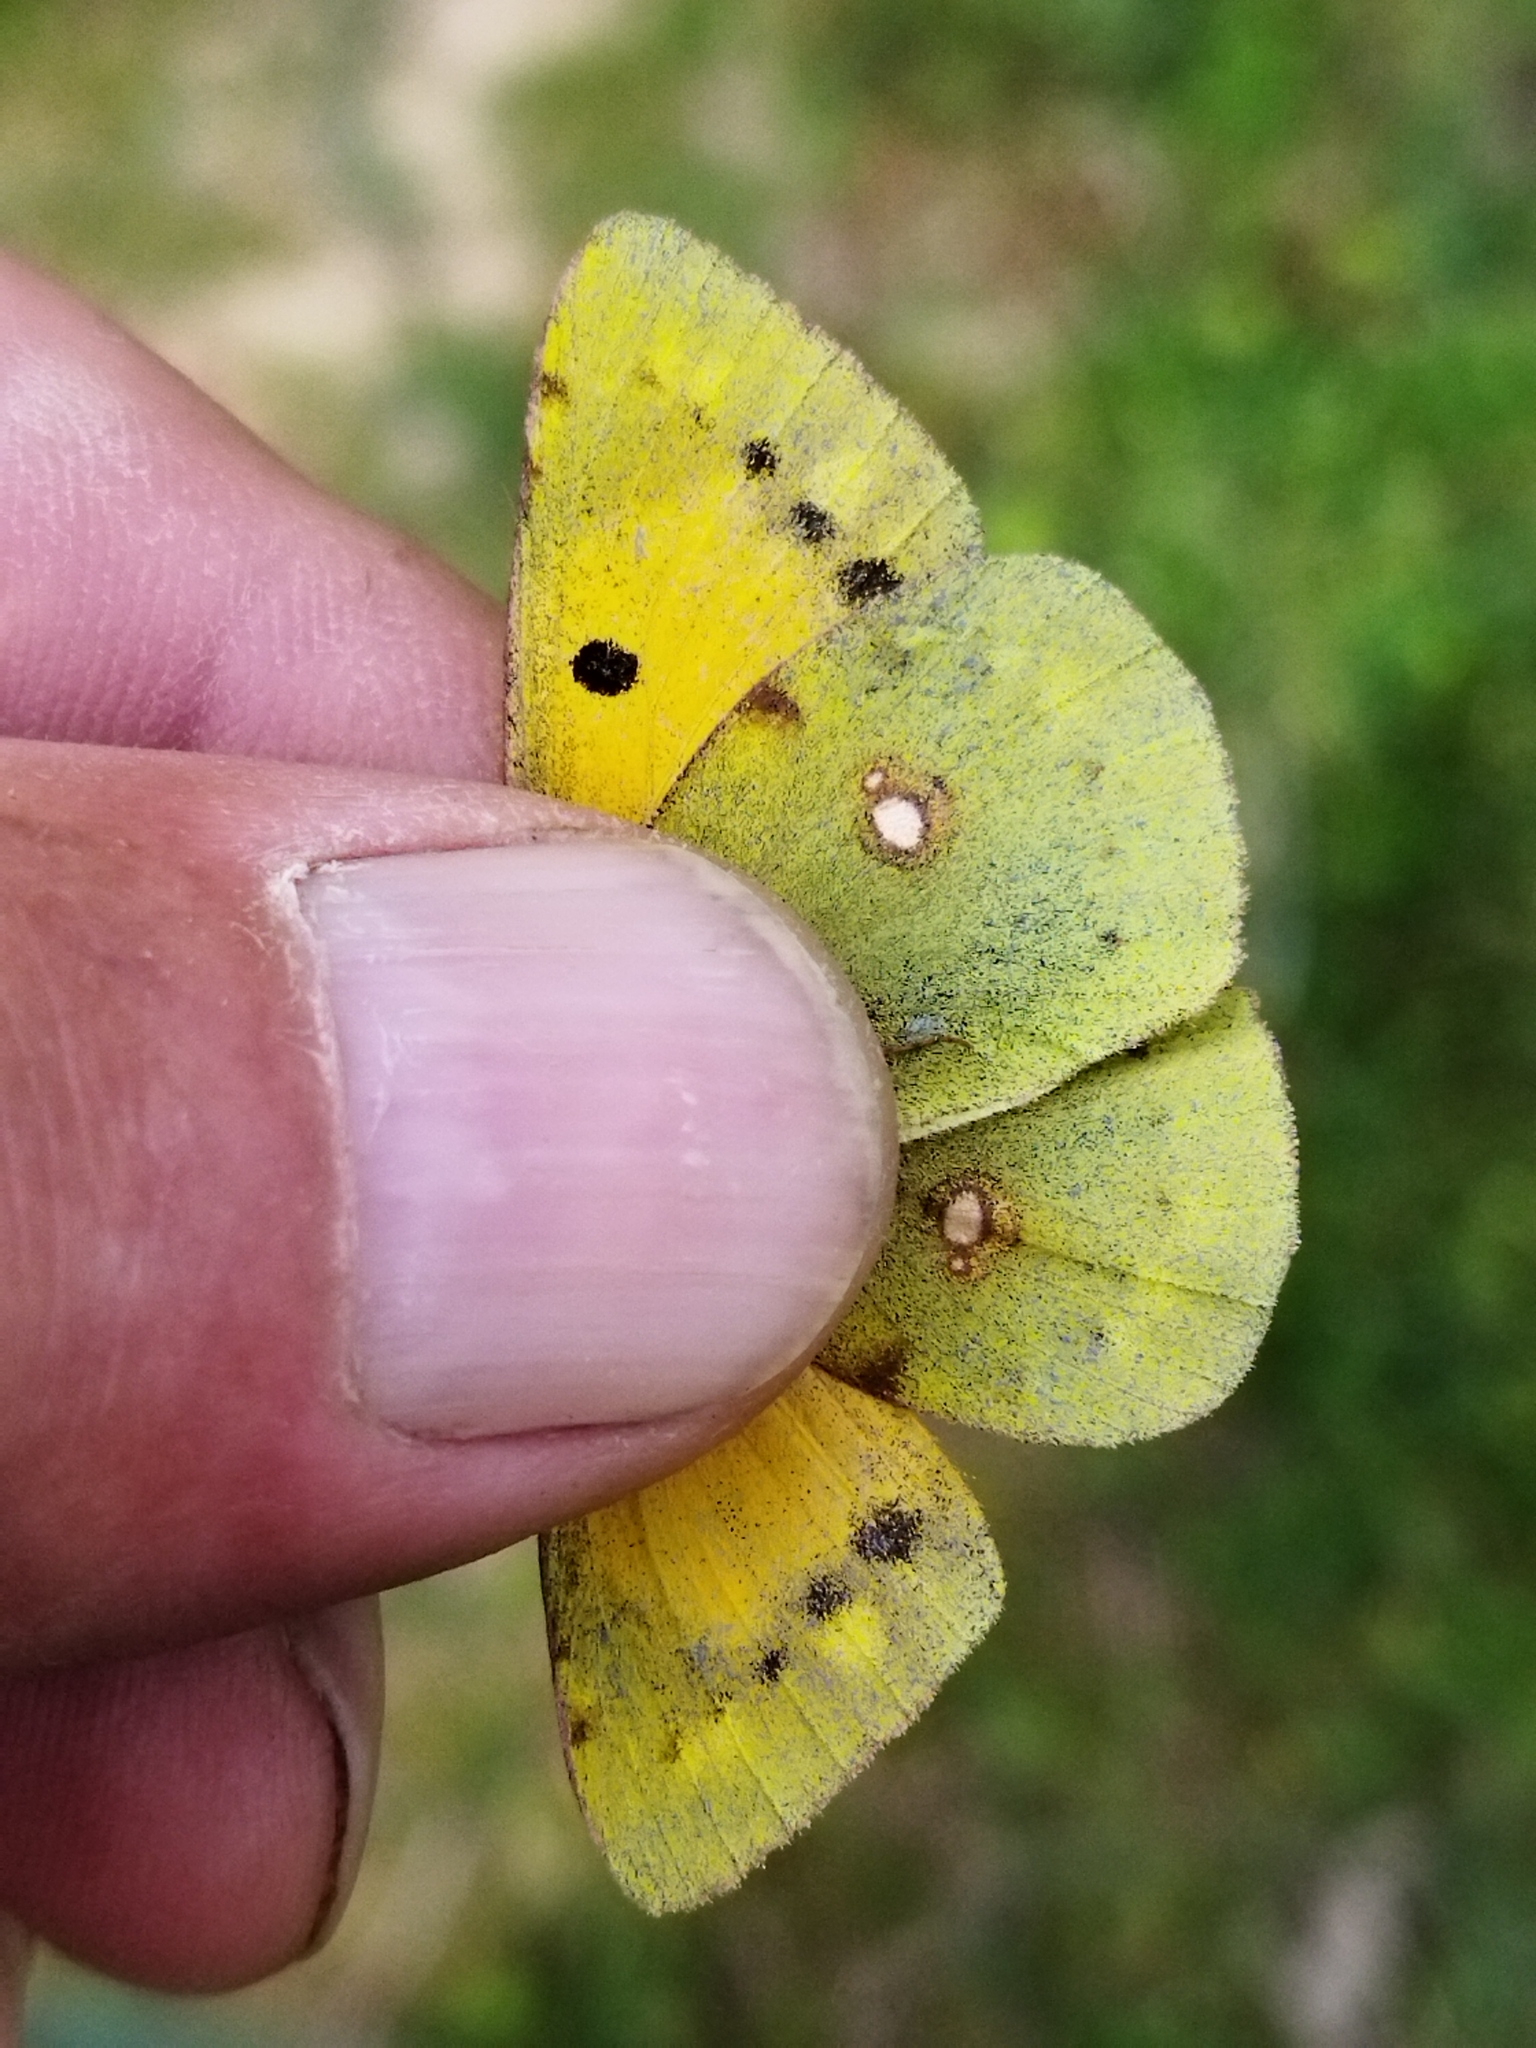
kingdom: Animalia
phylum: Arthropoda
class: Insecta
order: Lepidoptera
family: Pieridae
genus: Colias
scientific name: Colias croceus
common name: Clouded yellow
